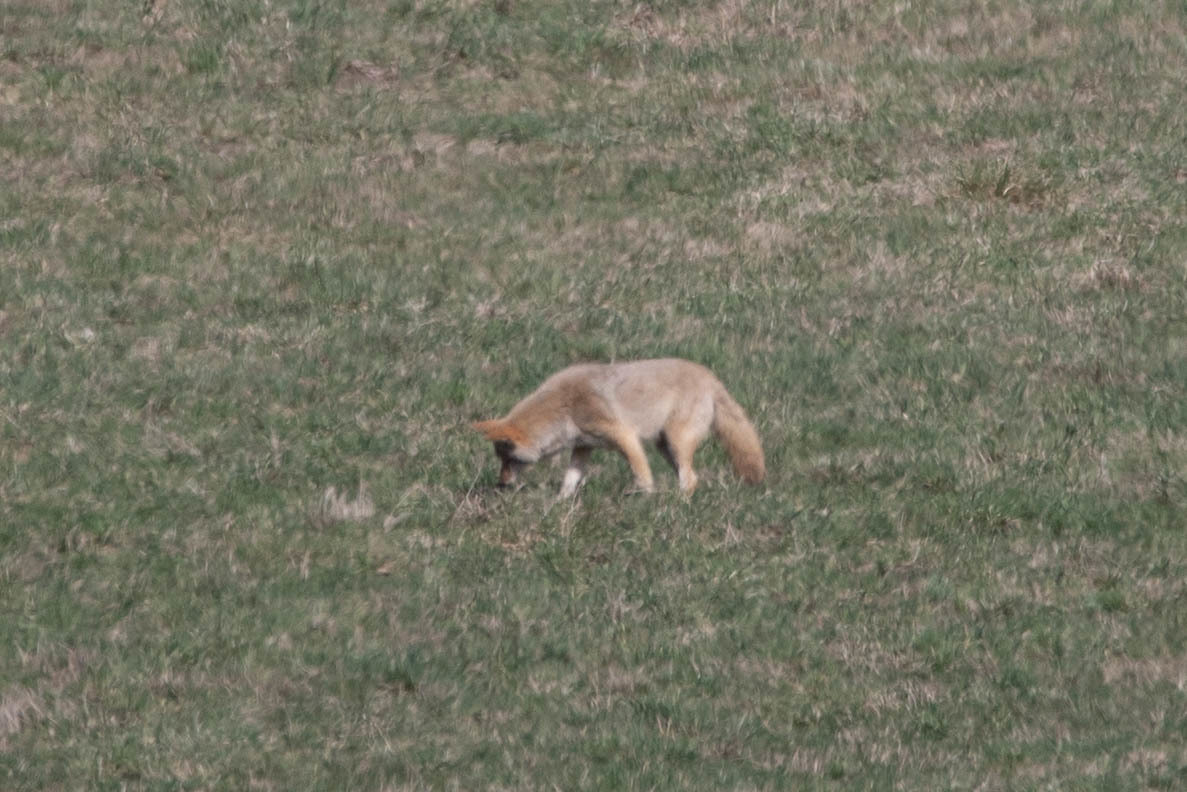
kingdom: Animalia
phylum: Chordata
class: Mammalia
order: Carnivora
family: Canidae
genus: Canis
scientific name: Canis latrans
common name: Coyote
